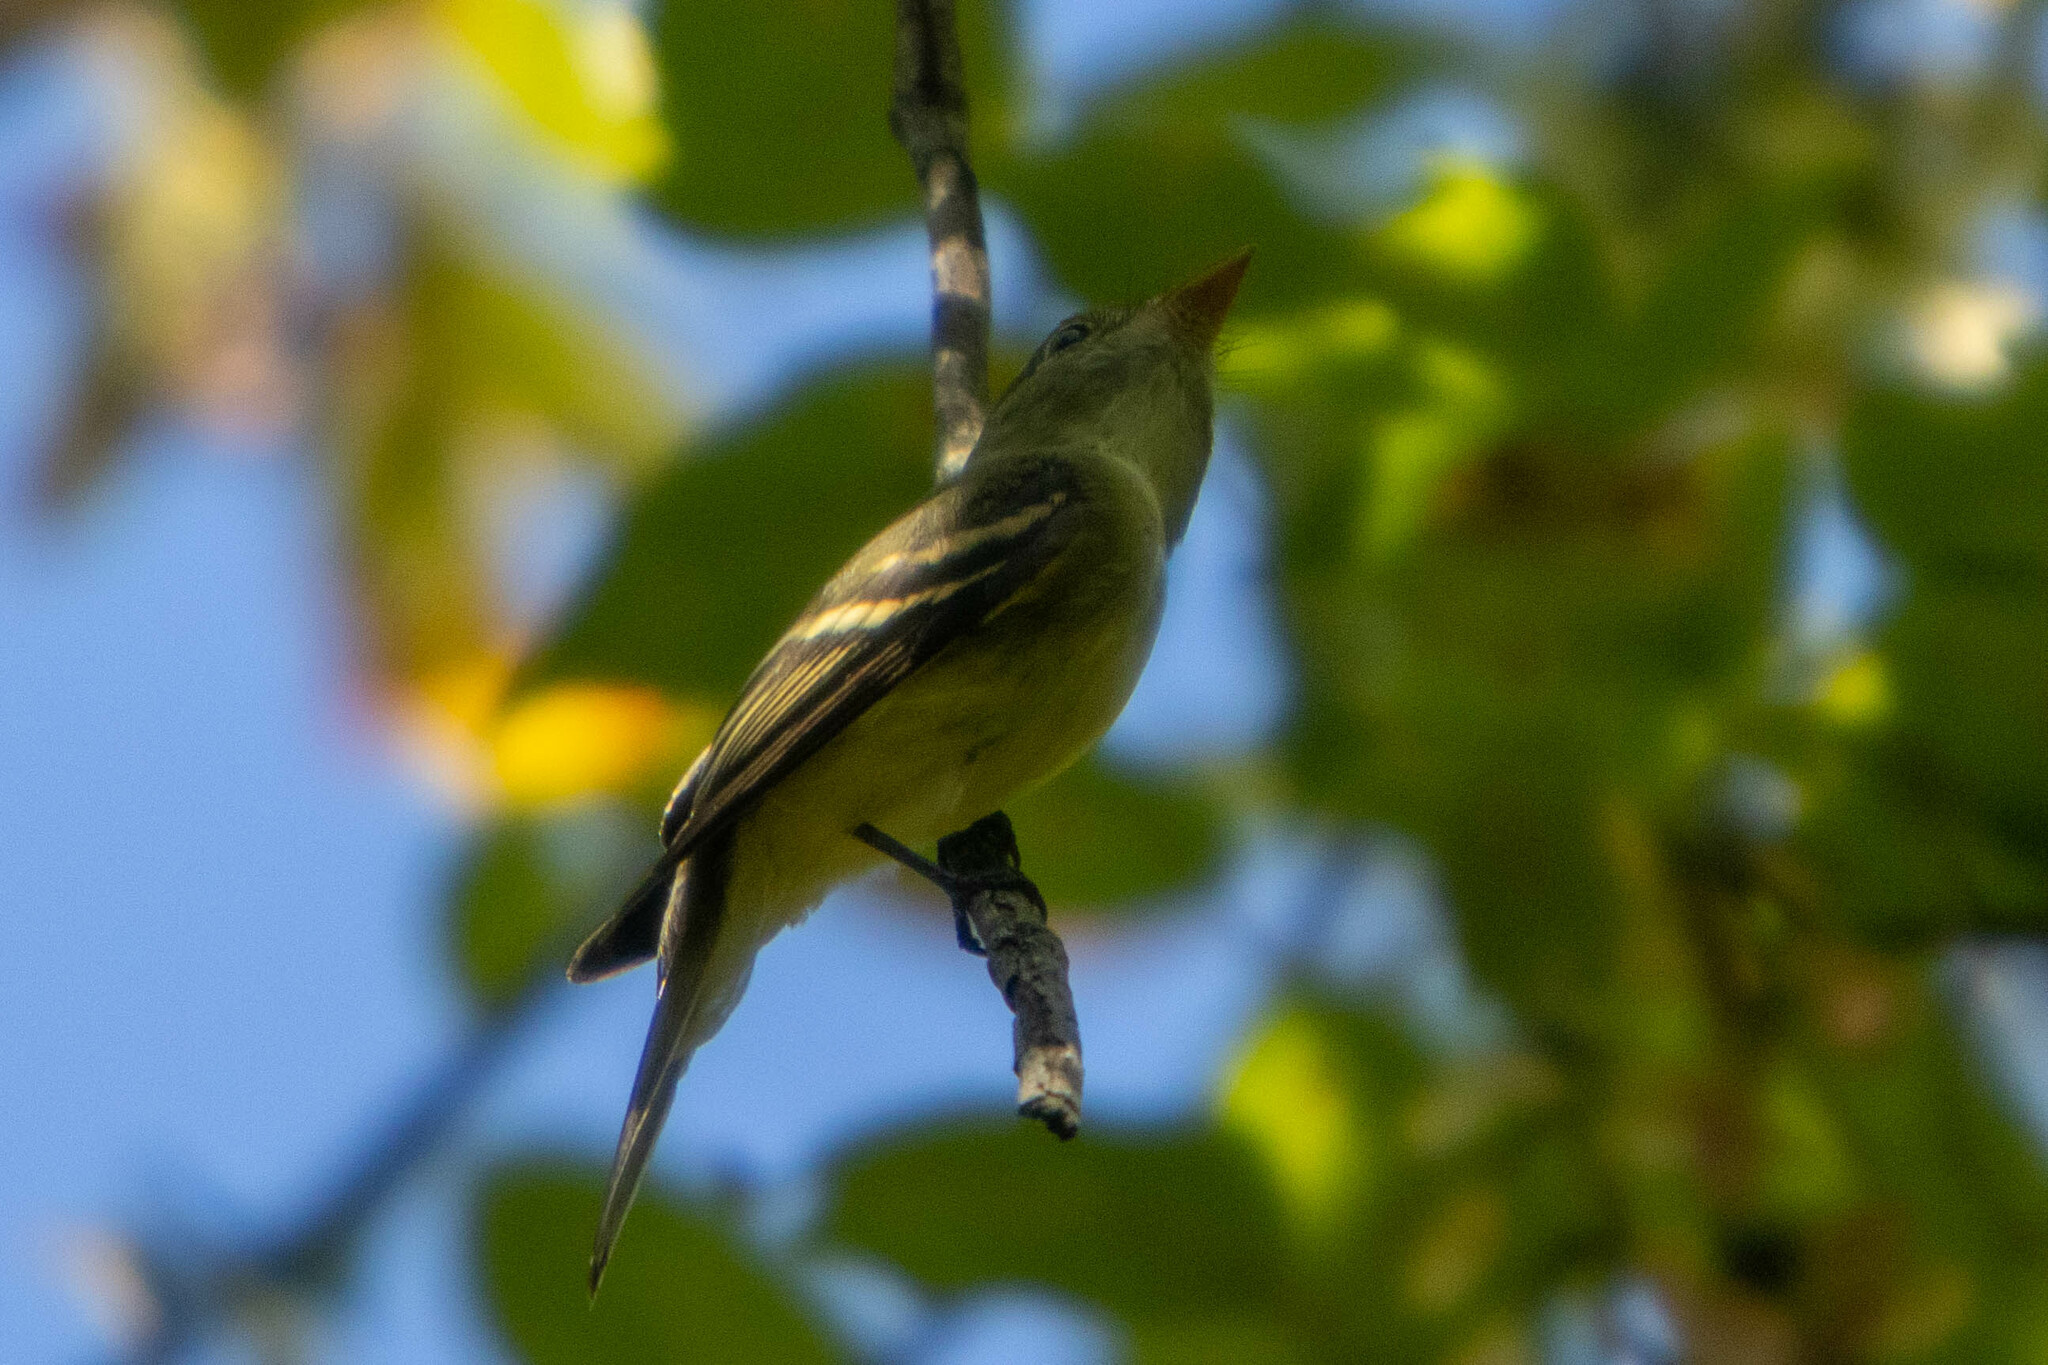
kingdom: Animalia
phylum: Chordata
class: Aves
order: Passeriformes
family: Tyrannidae
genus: Empidonax
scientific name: Empidonax virescens
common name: Acadian flycatcher
